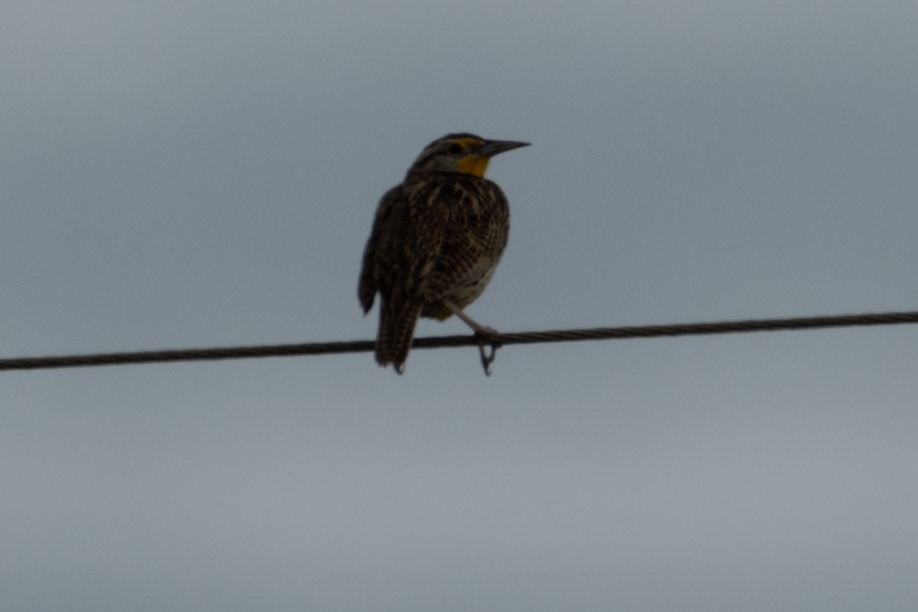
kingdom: Animalia
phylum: Chordata
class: Aves
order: Passeriformes
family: Icteridae
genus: Sturnella
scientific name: Sturnella neglecta
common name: Western meadowlark
